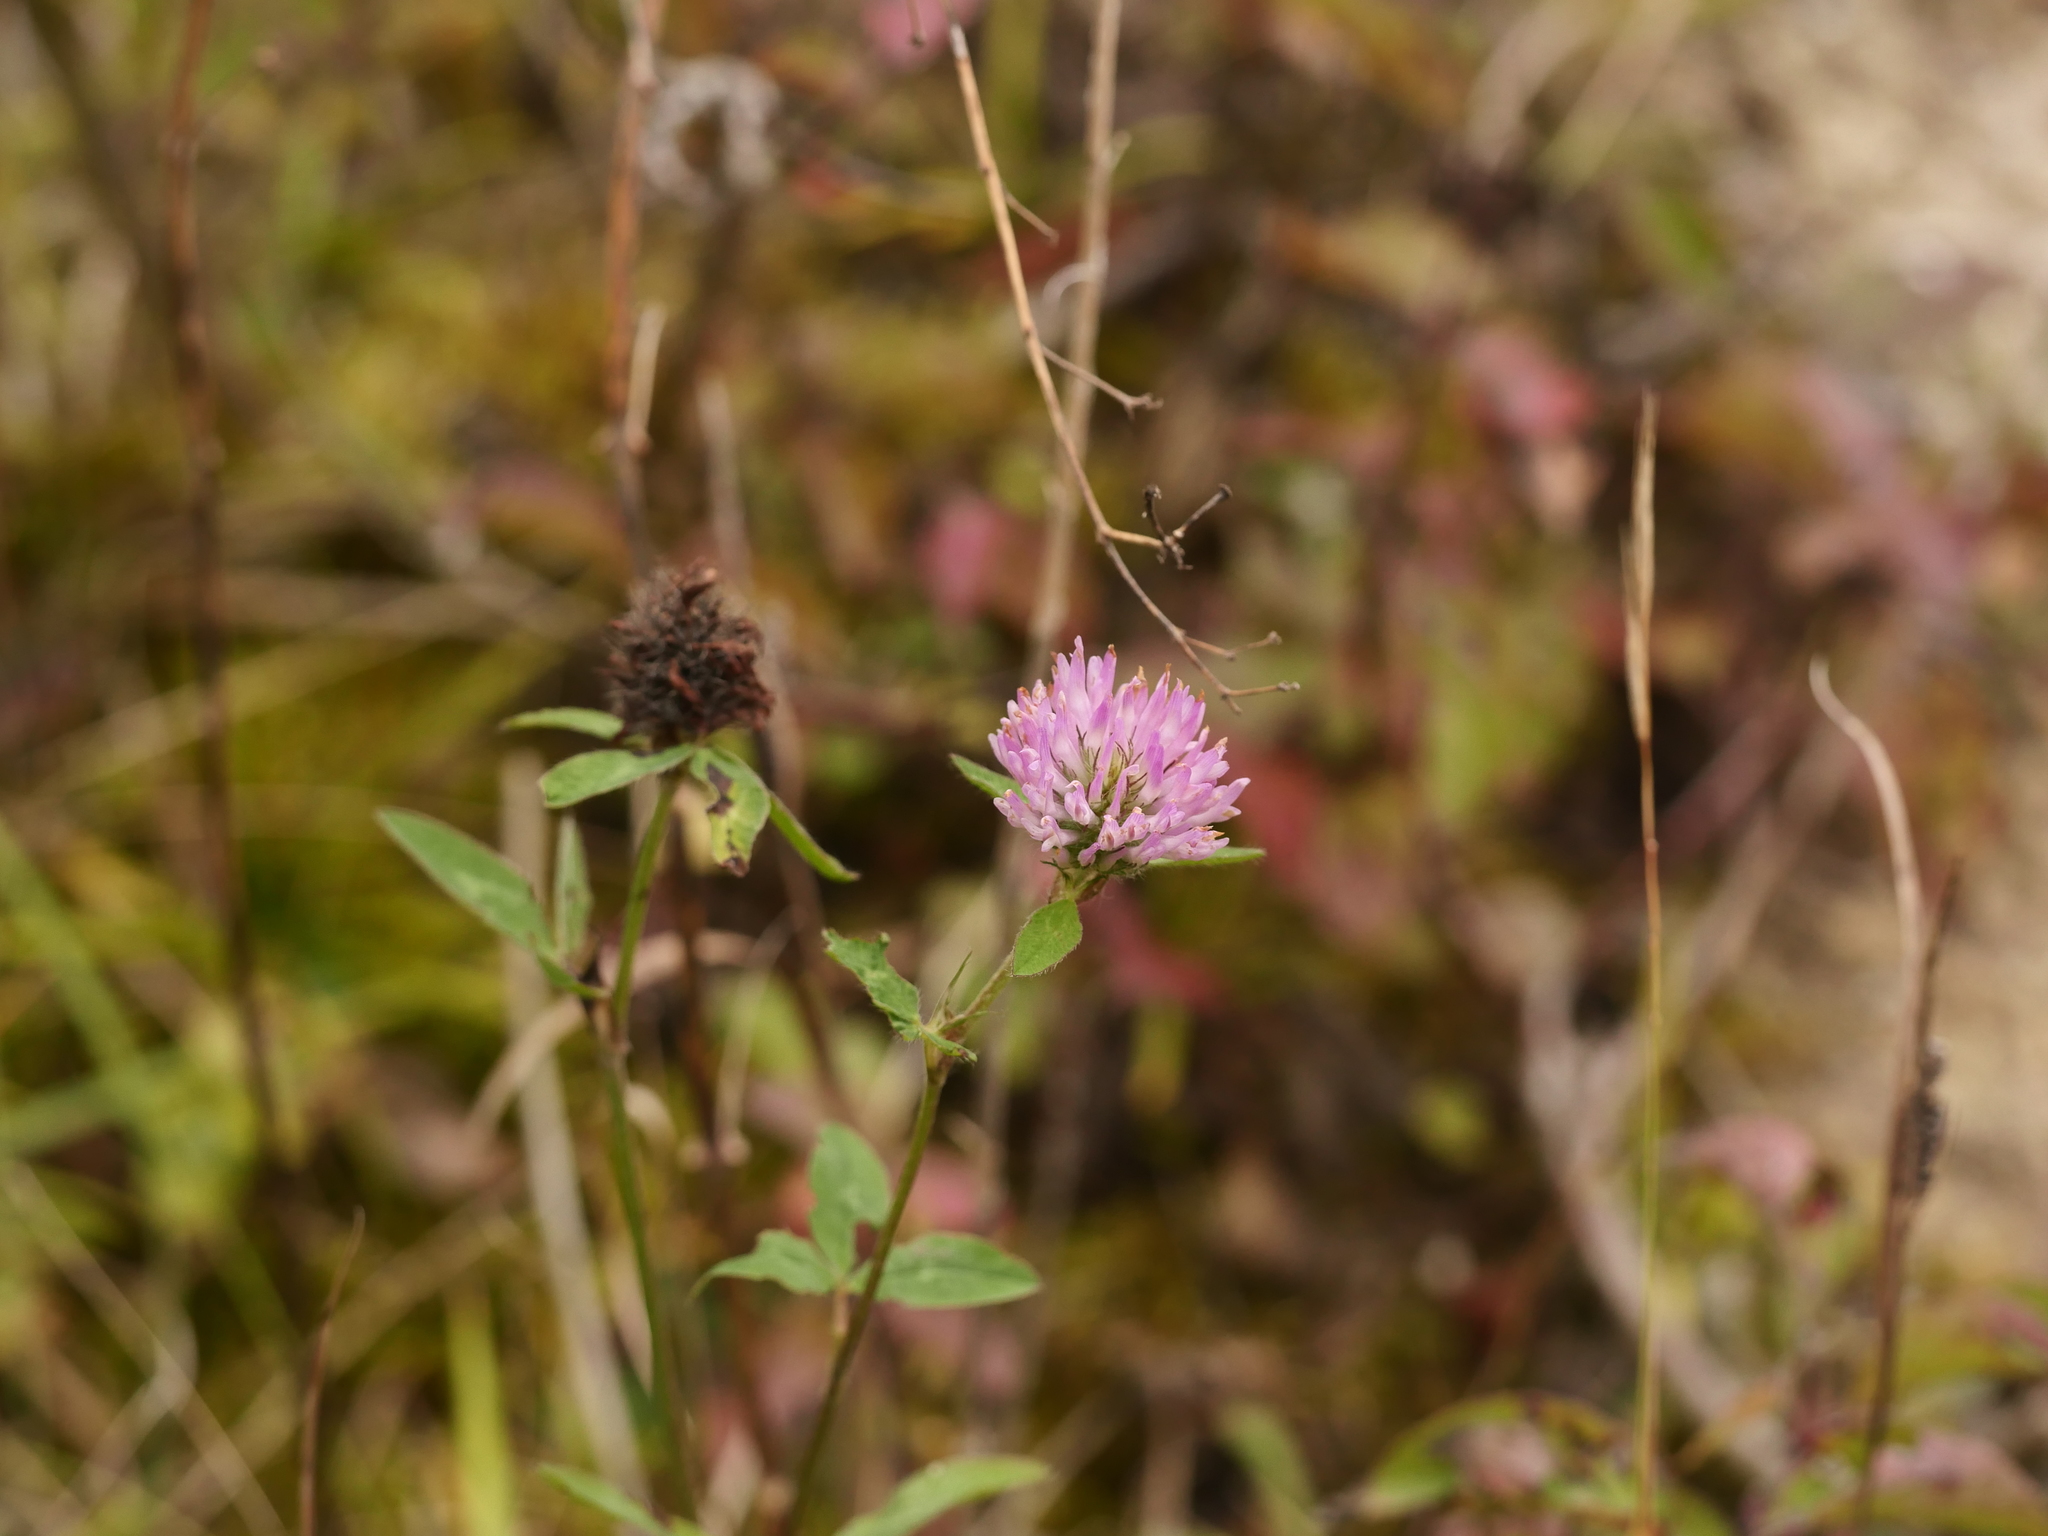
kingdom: Plantae
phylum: Tracheophyta
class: Magnoliopsida
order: Fabales
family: Fabaceae
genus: Trifolium
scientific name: Trifolium pratense
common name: Red clover
